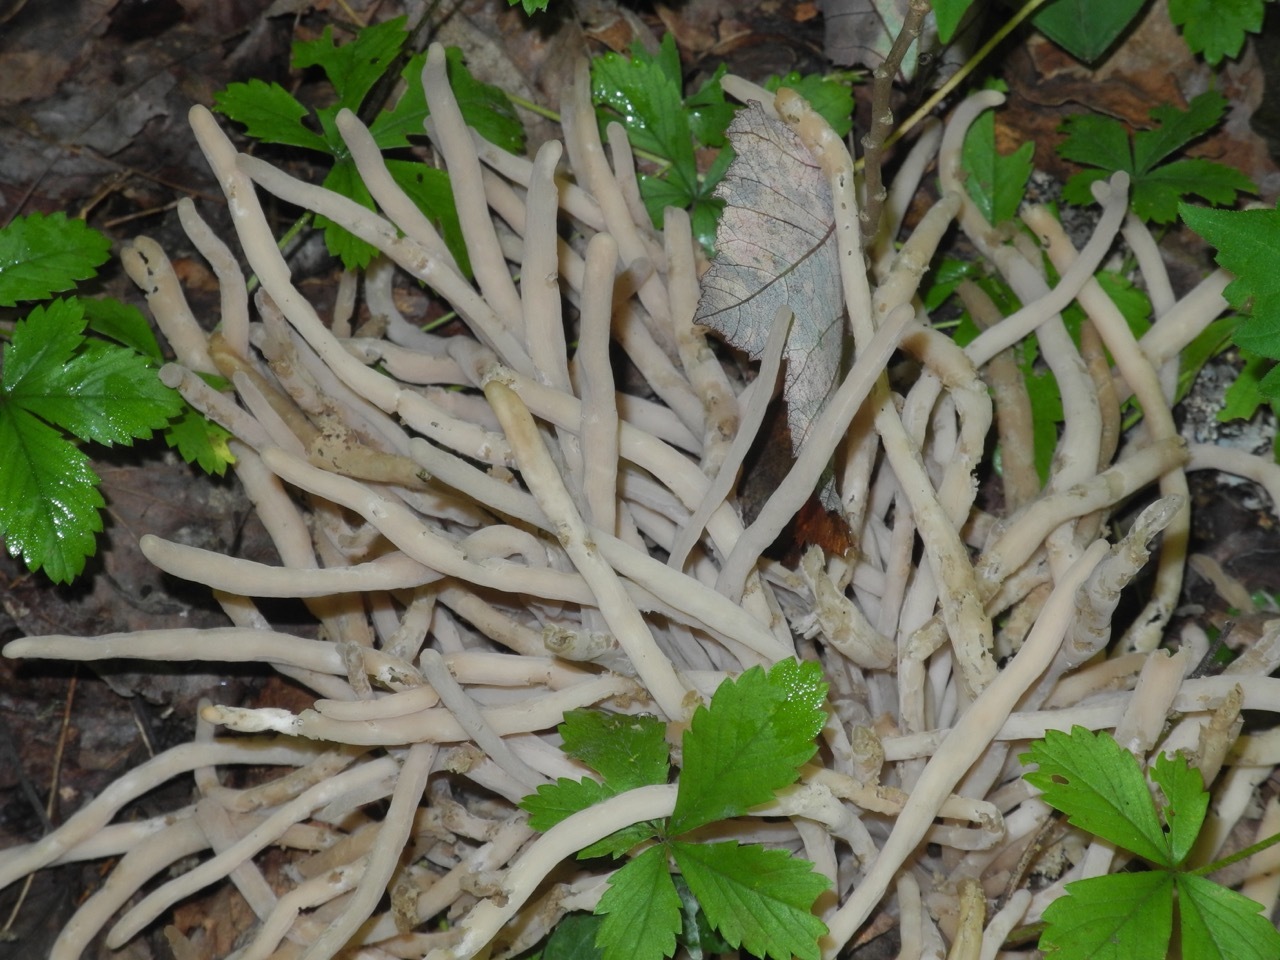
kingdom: Fungi
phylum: Basidiomycota
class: Agaricomycetes
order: Agaricales
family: Clavariaceae
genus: Clavaria
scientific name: Clavaria fumosa
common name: Smoky spindles
